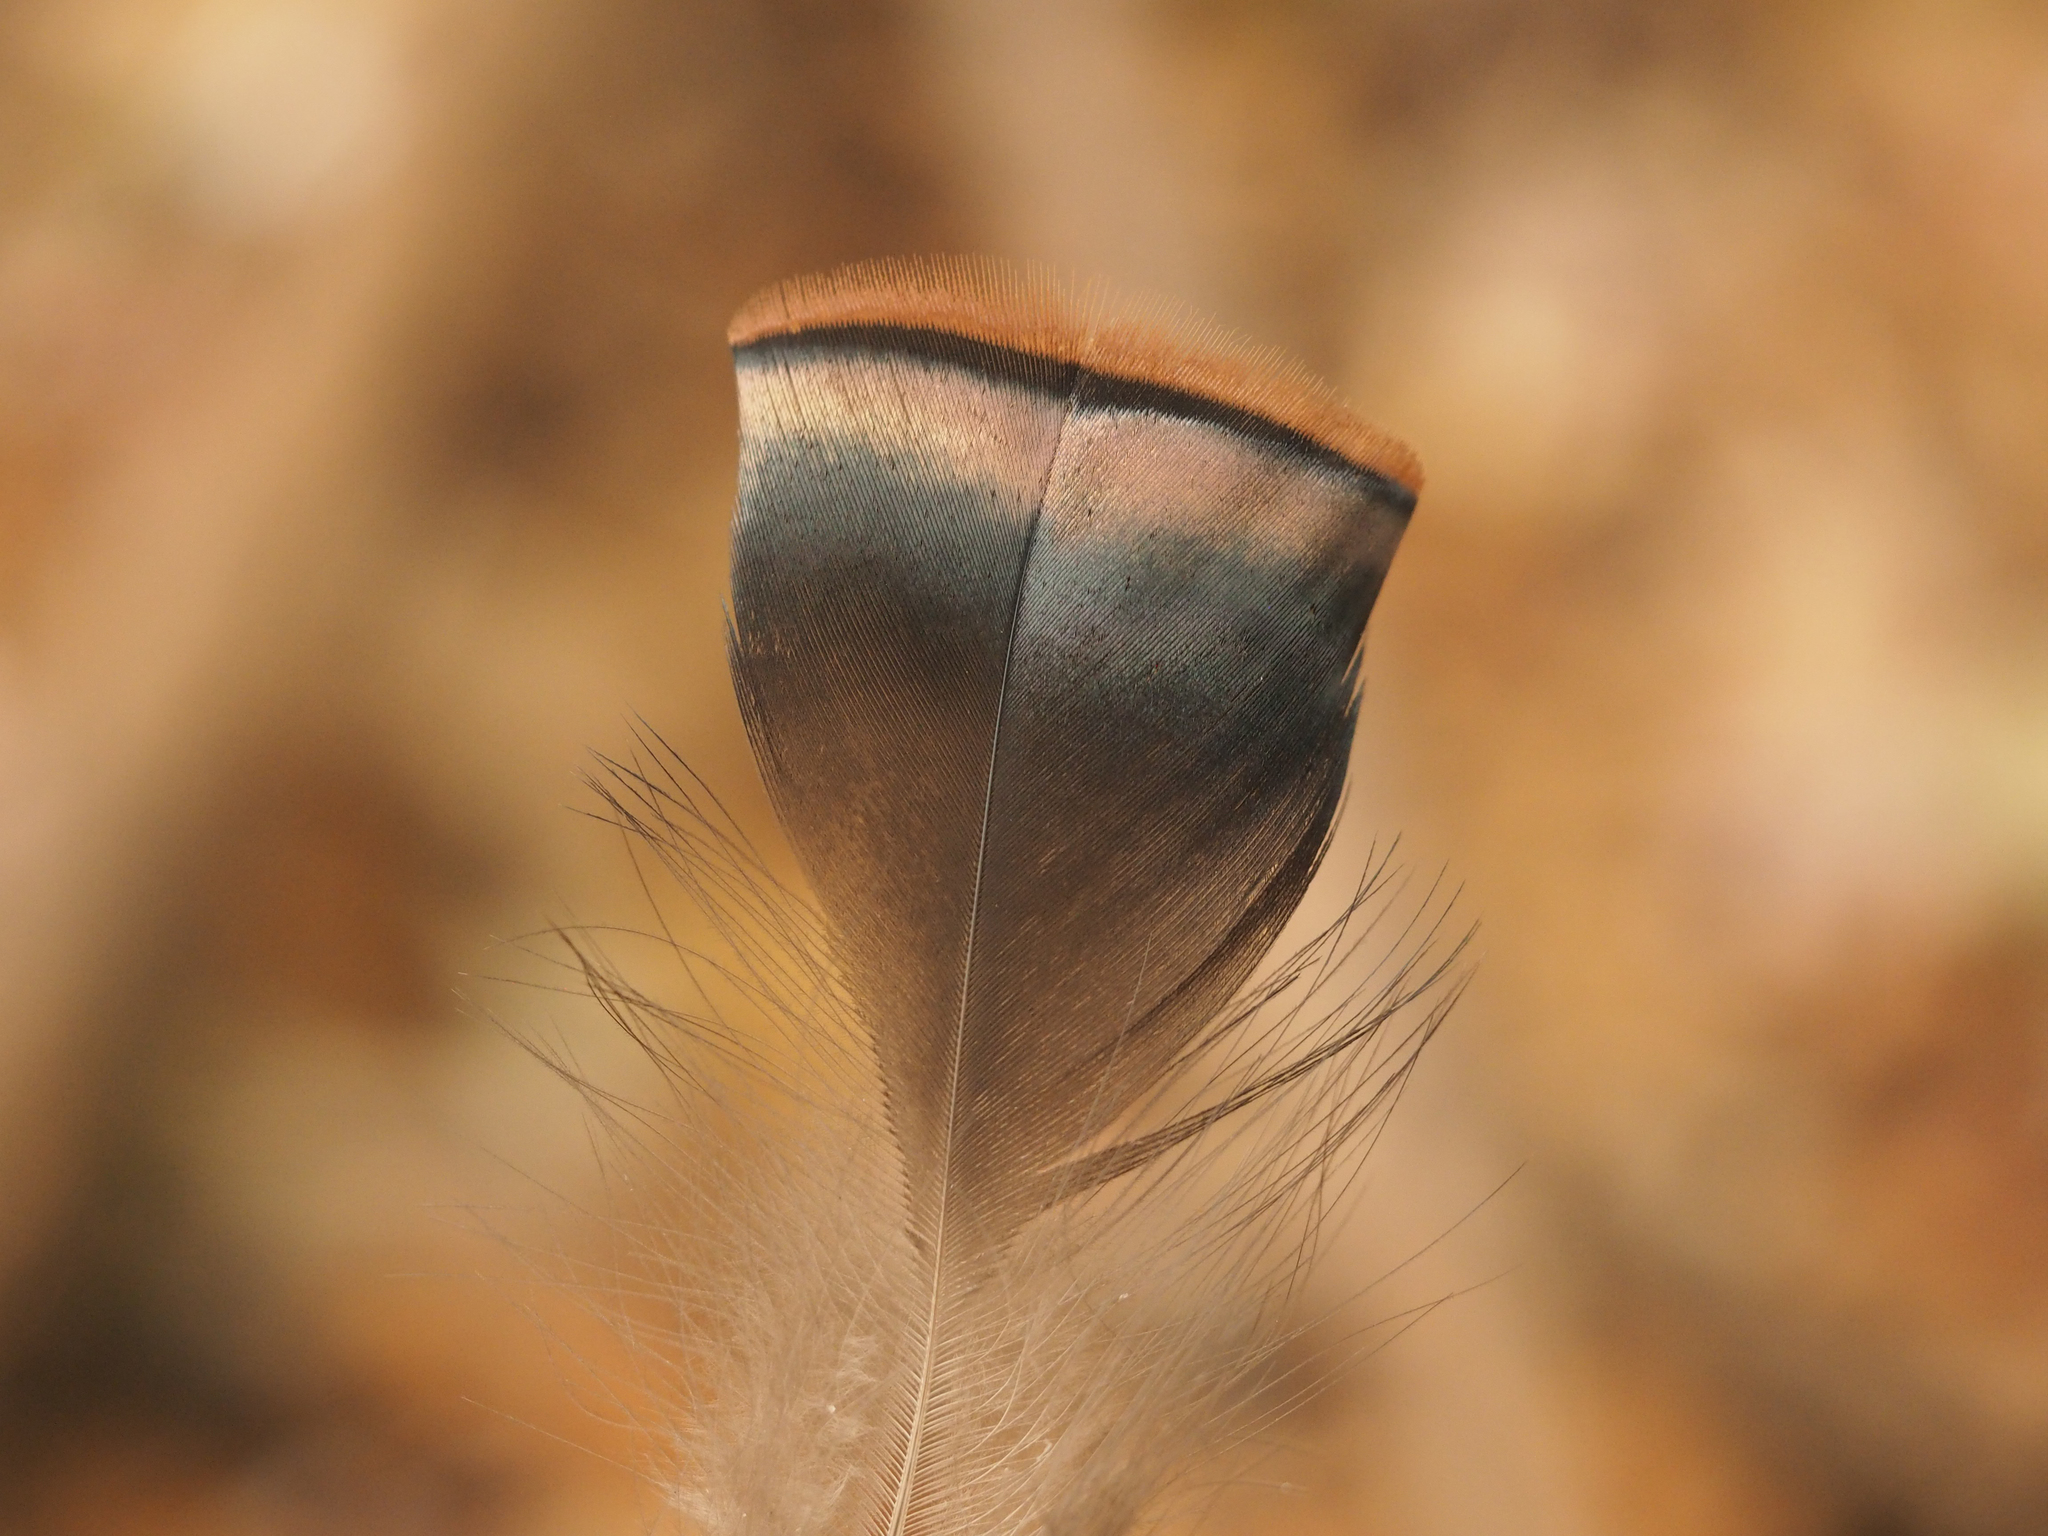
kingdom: Animalia
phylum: Chordata
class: Aves
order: Galliformes
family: Phasianidae
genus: Meleagris
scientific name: Meleagris gallopavo
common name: Wild turkey
